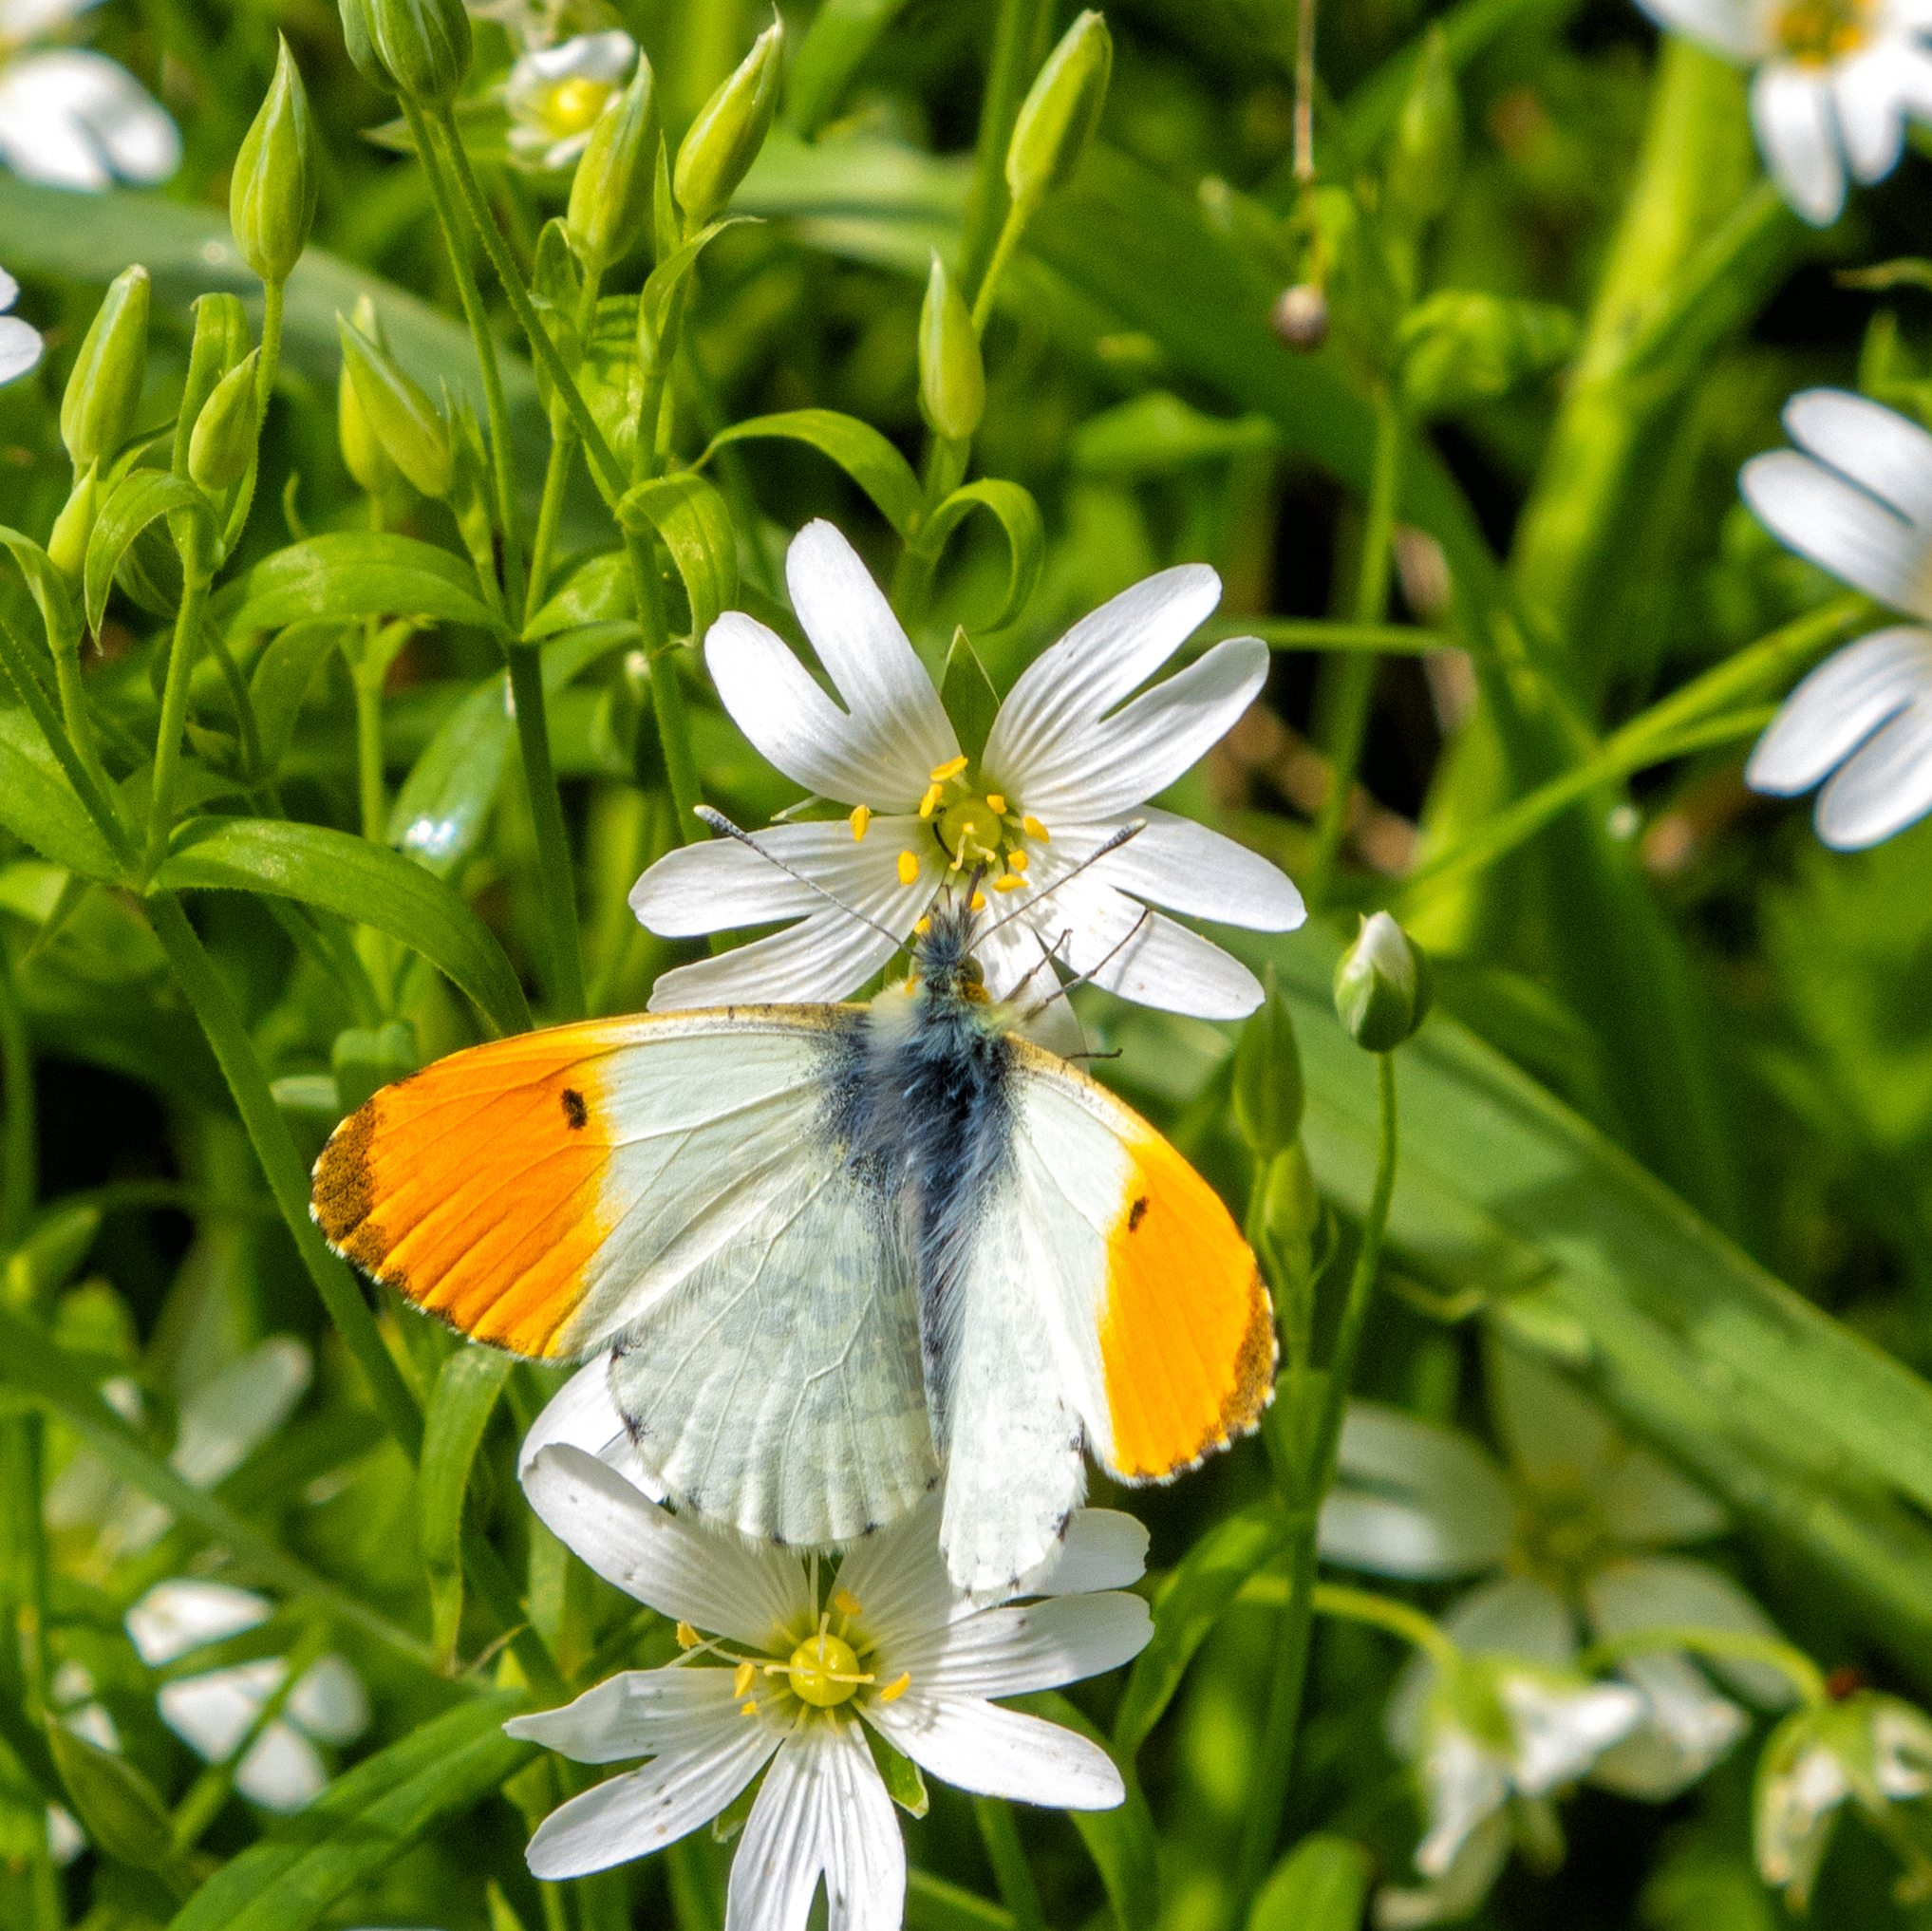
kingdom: Animalia
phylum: Arthropoda
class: Insecta
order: Lepidoptera
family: Pieridae
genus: Anthocharis
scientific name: Anthocharis cardamines
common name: Orange-tip
